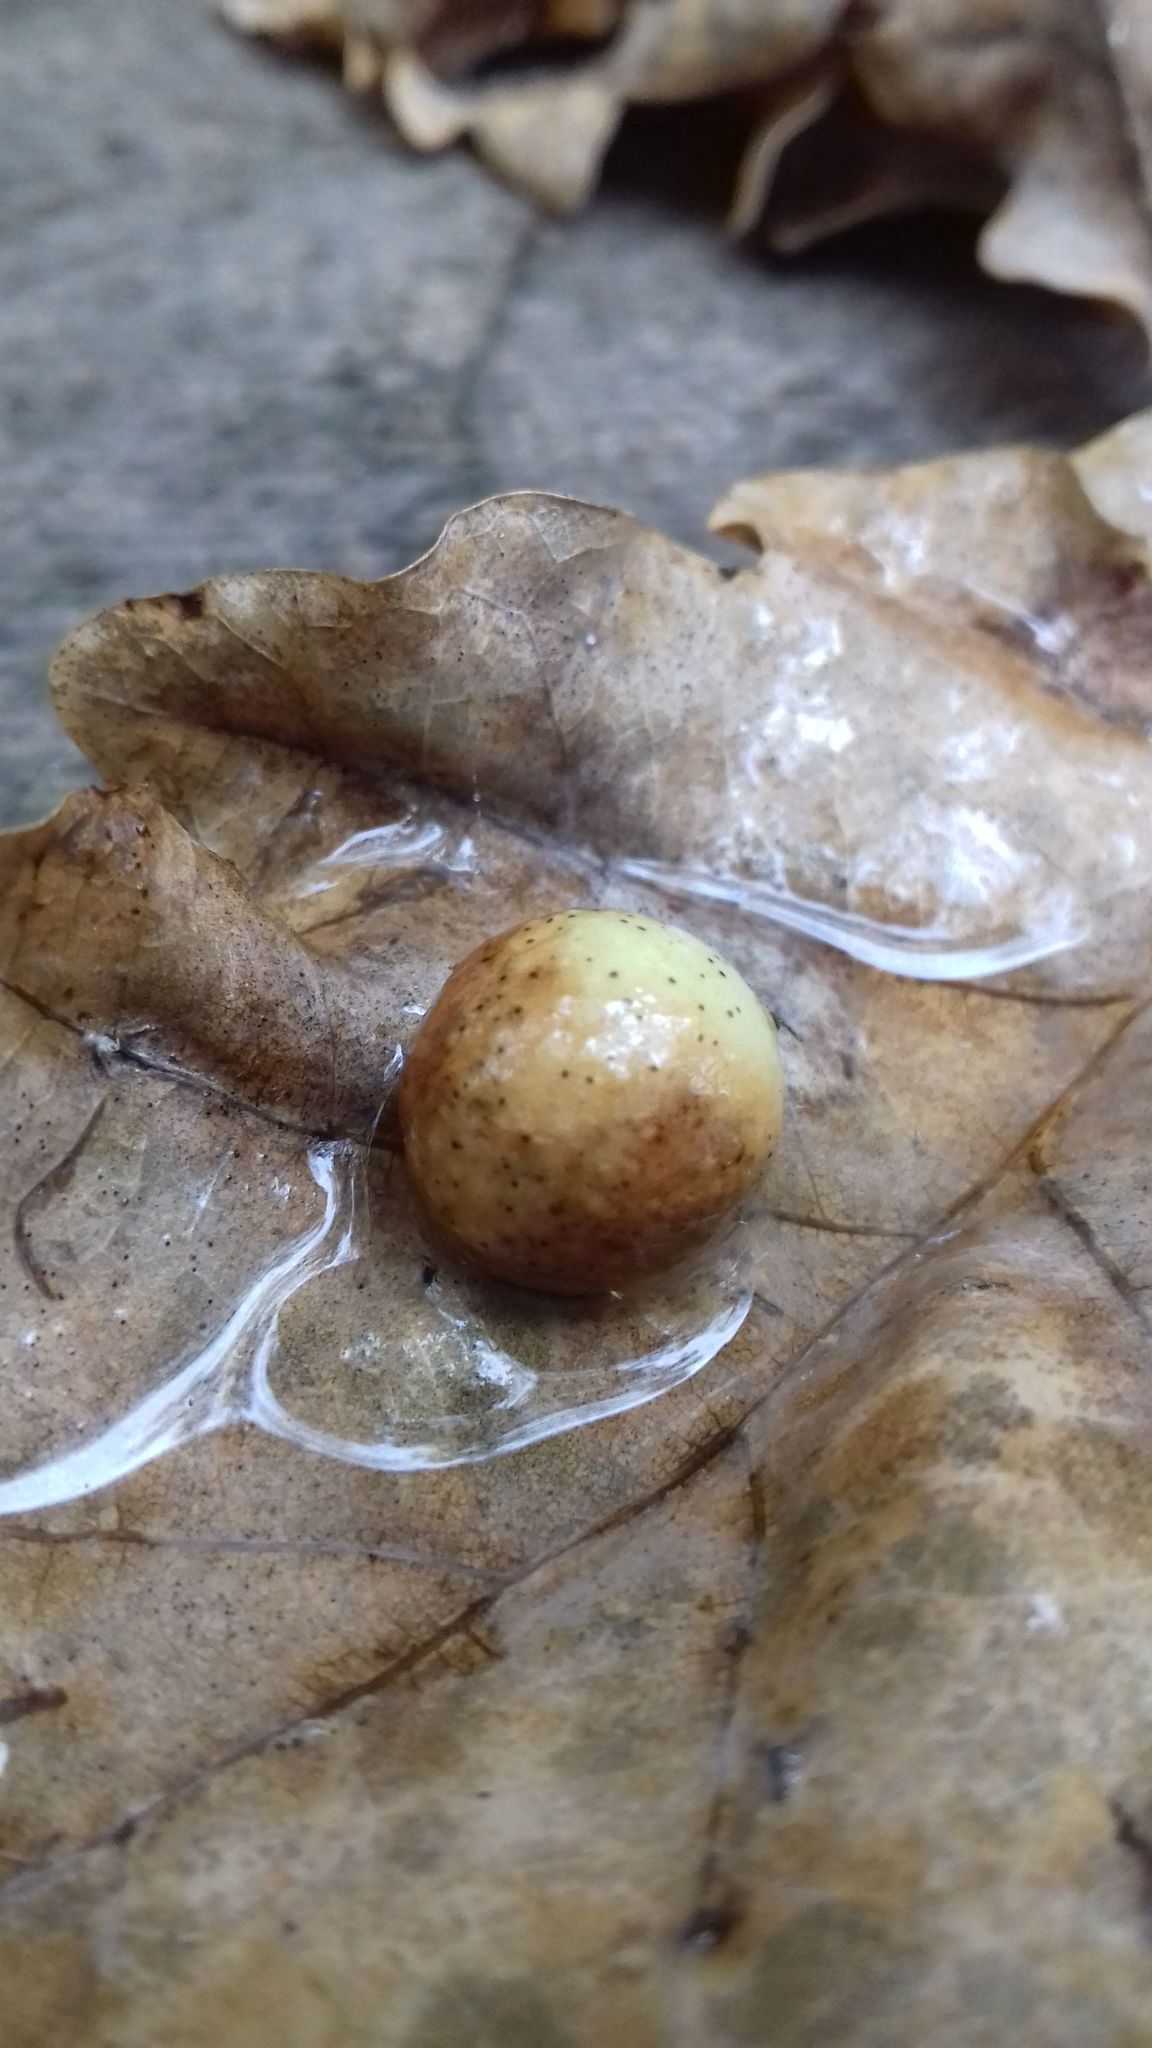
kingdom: Animalia
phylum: Arthropoda
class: Insecta
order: Hymenoptera
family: Cynipidae
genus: Cynips
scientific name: Cynips quercusfolii
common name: Cherry gall
